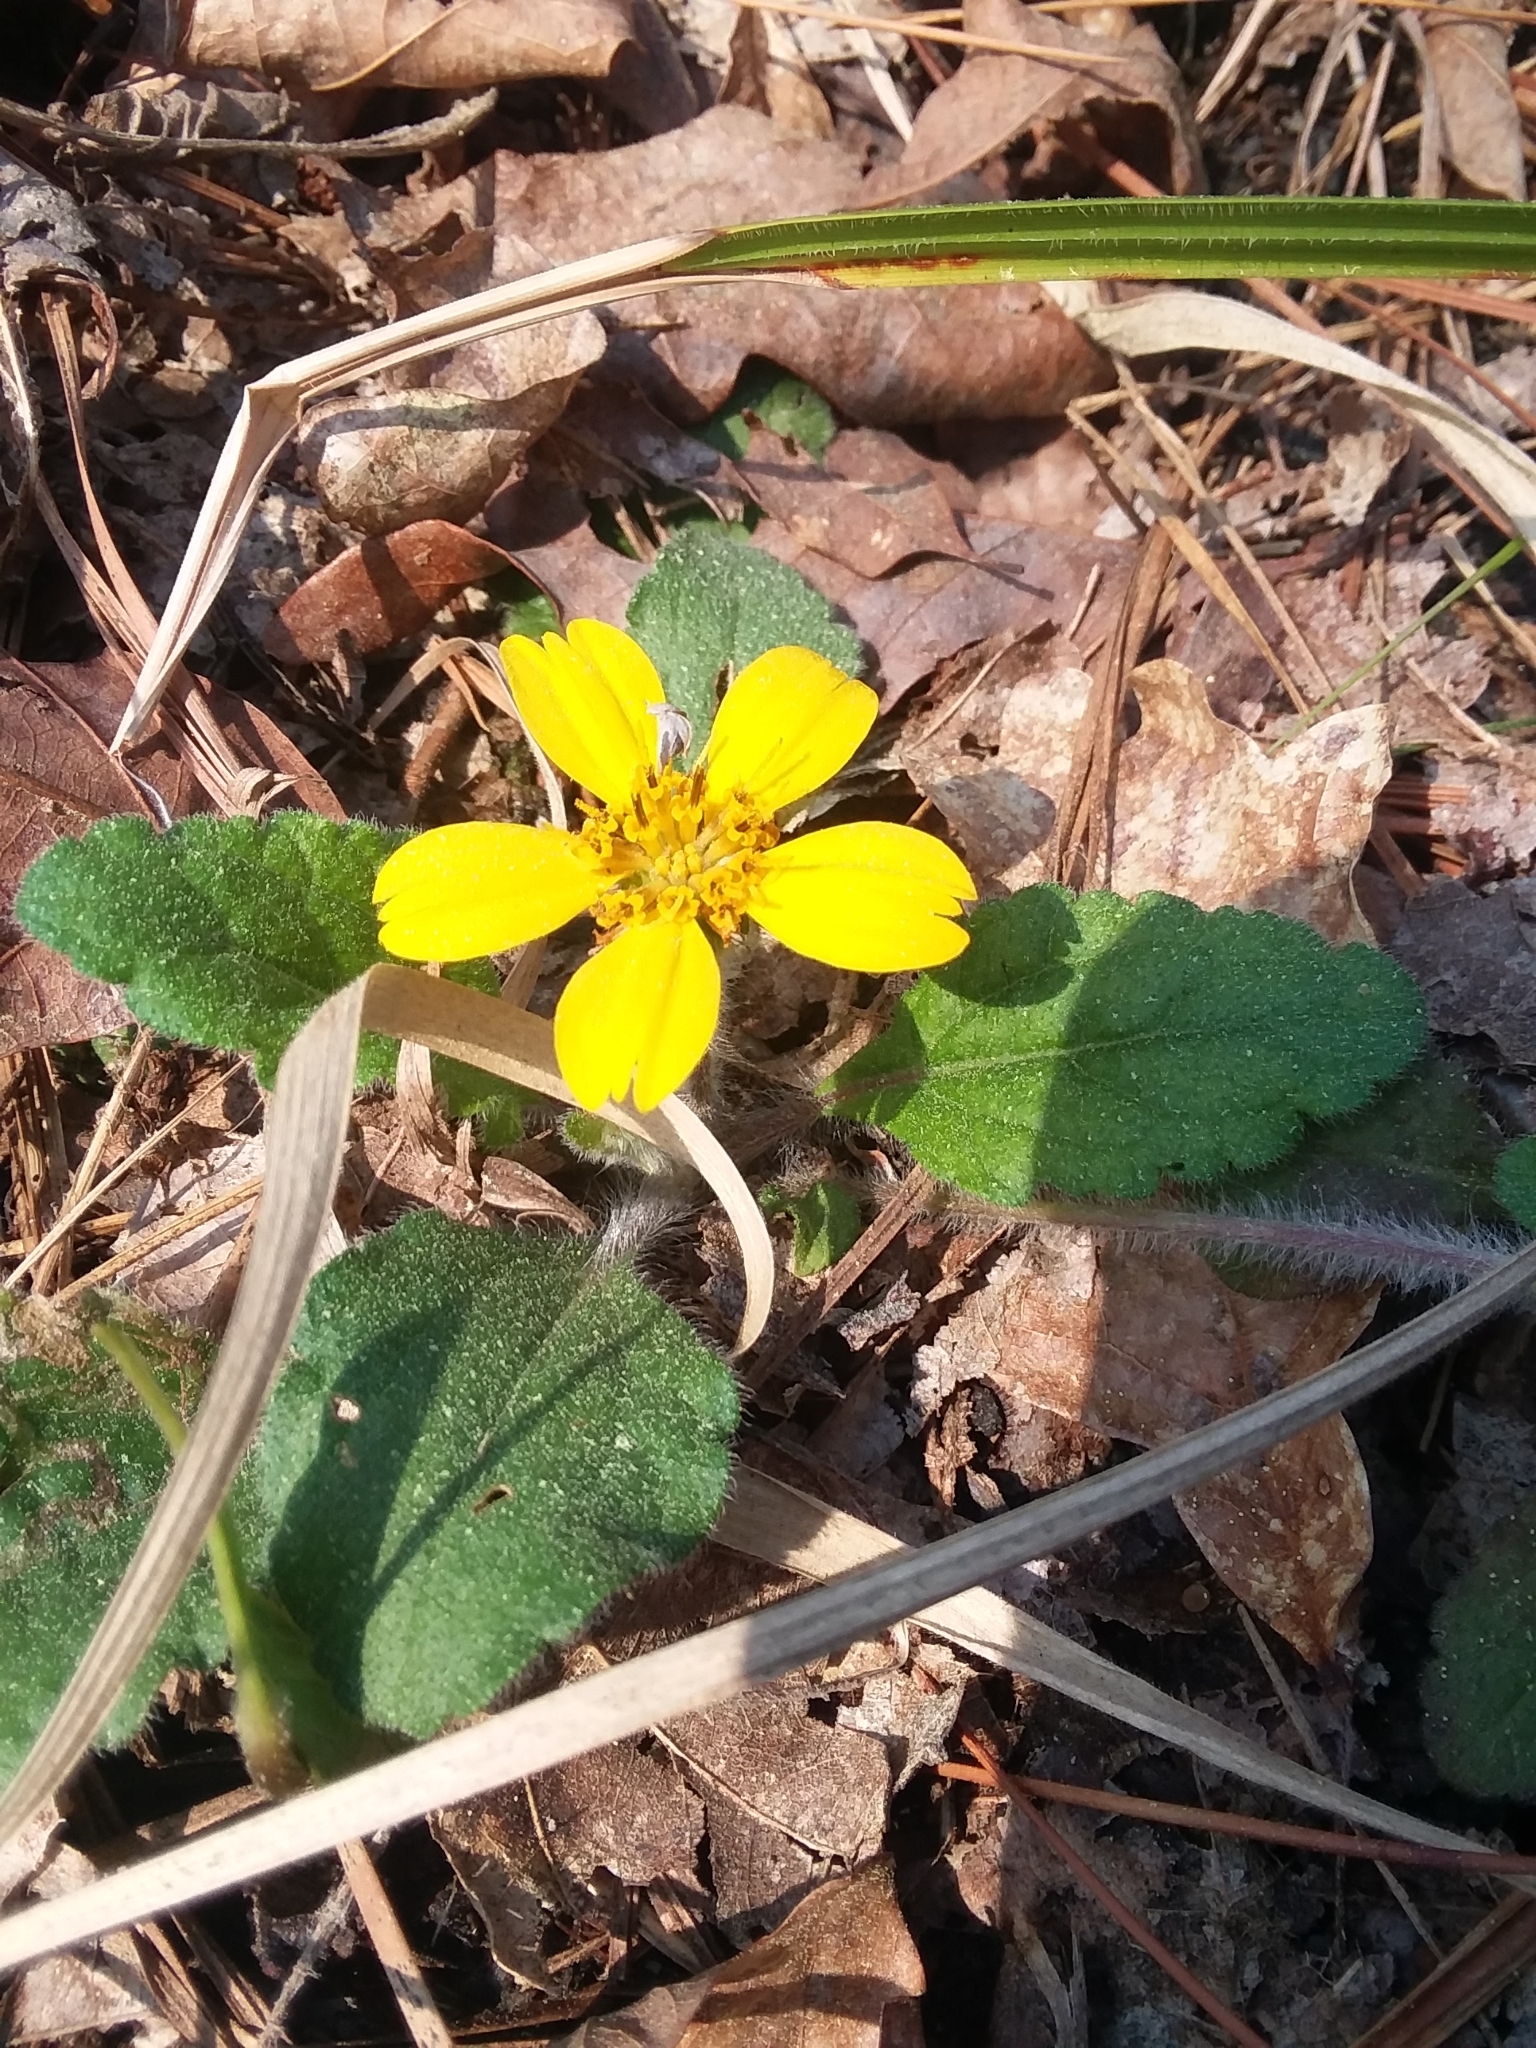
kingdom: Plantae
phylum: Tracheophyta
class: Magnoliopsida
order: Asterales
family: Asteraceae
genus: Chrysogonum
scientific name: Chrysogonum australe
